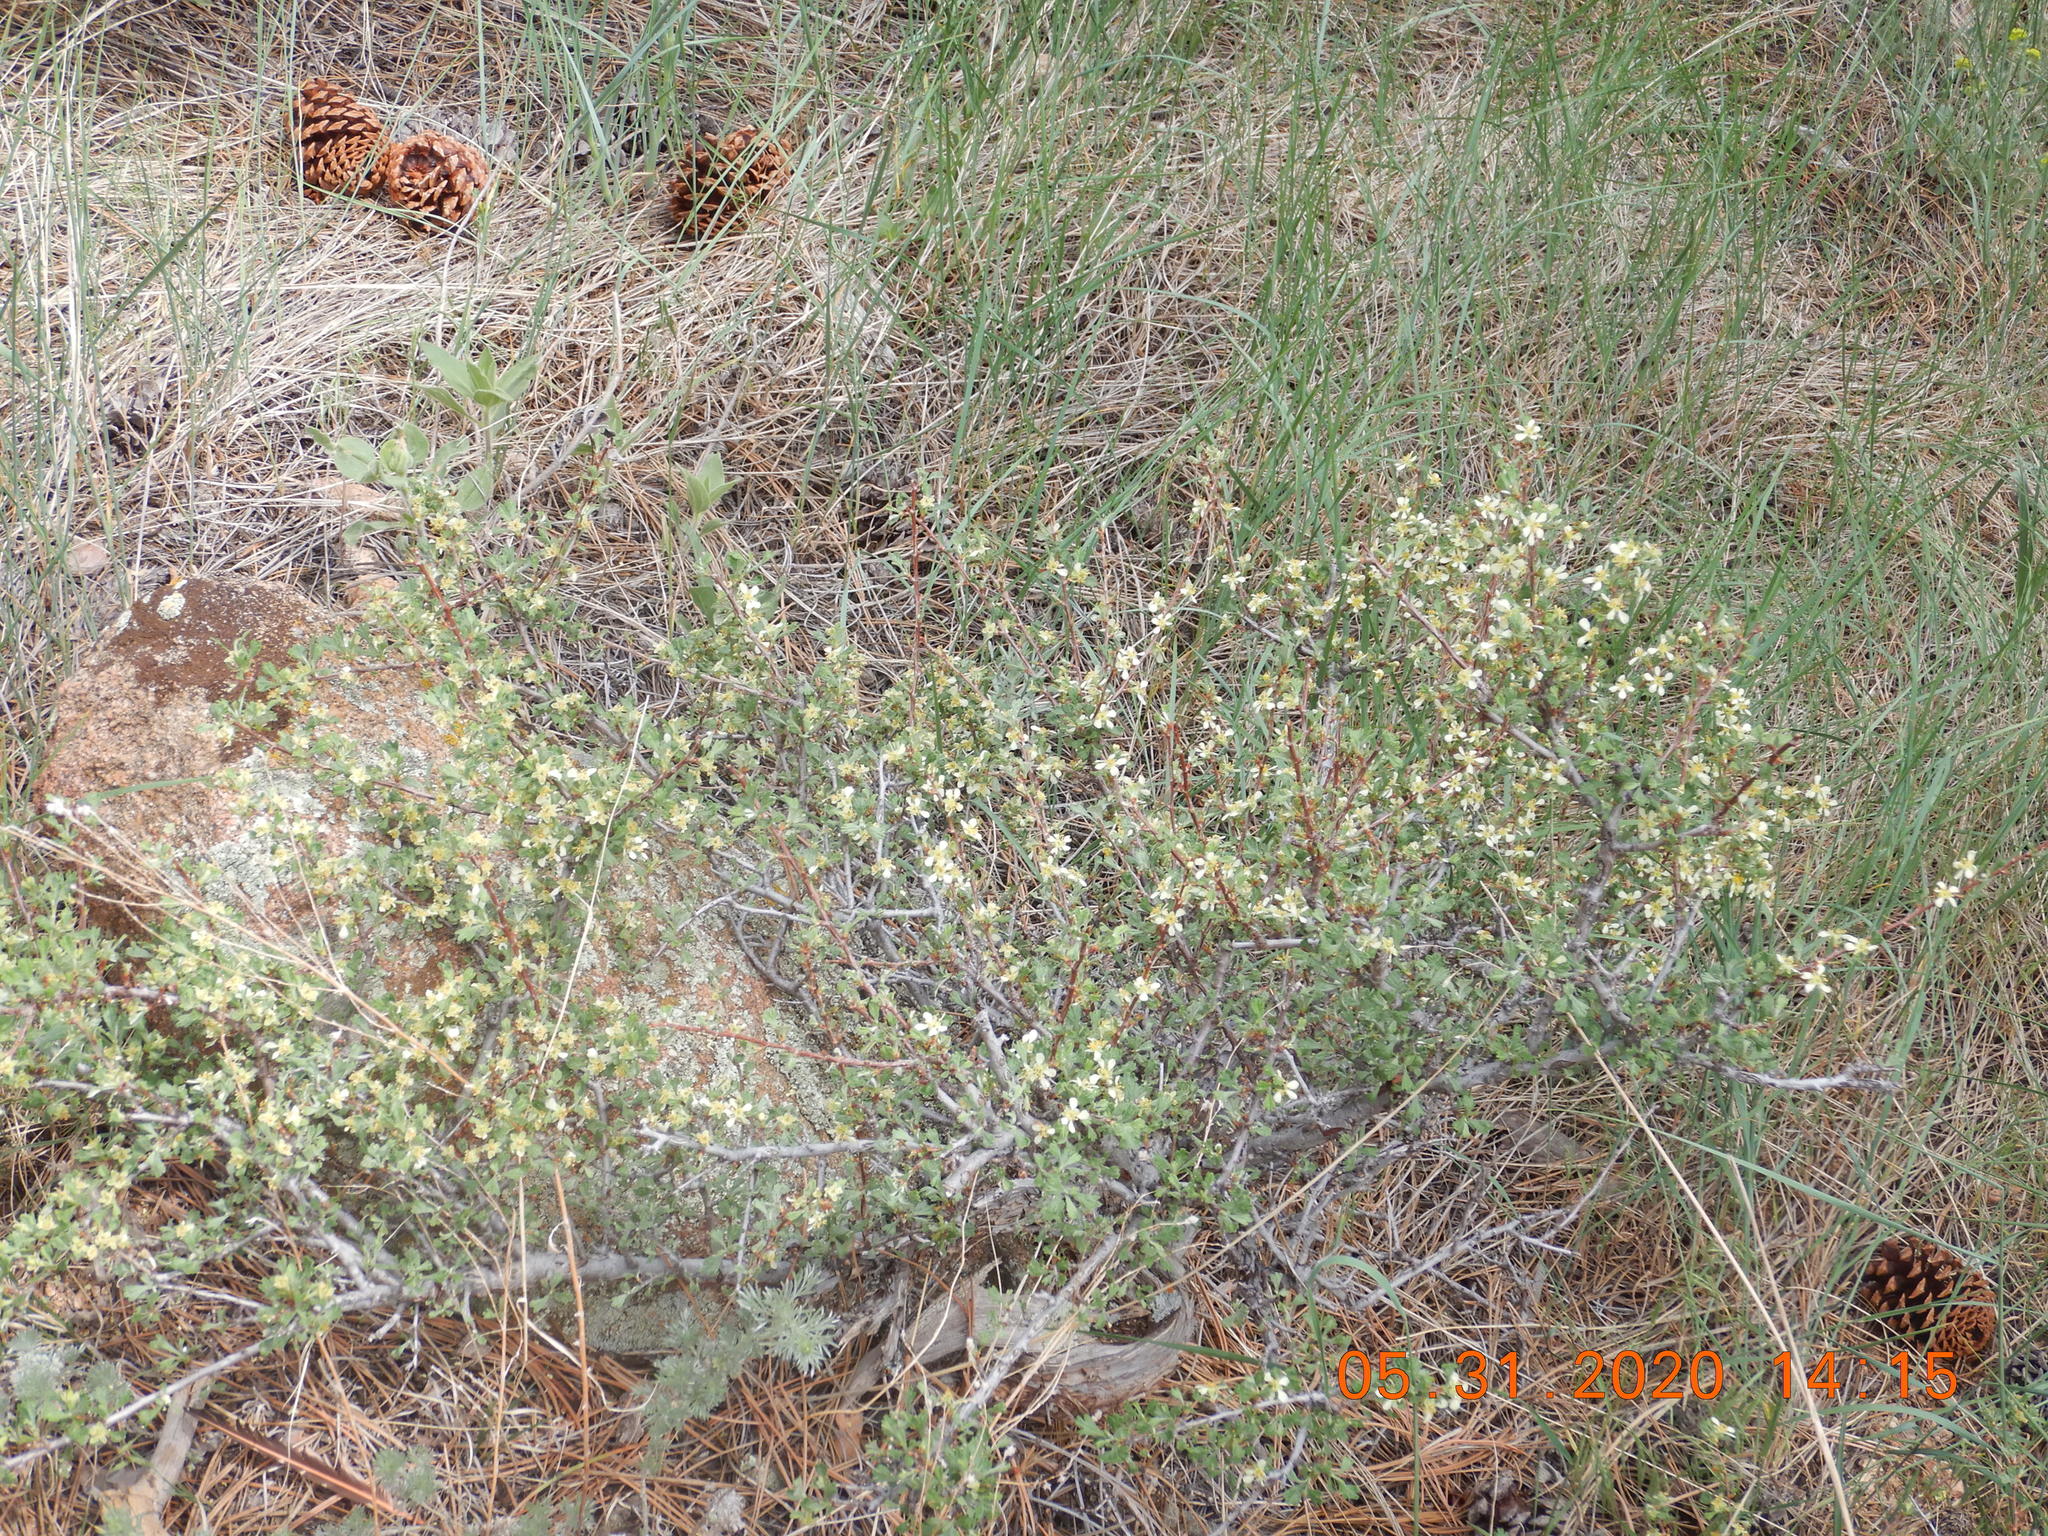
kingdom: Plantae
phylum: Tracheophyta
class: Magnoliopsida
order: Rosales
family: Rosaceae
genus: Purshia
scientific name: Purshia tridentata
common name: Antelope bitterbrush
